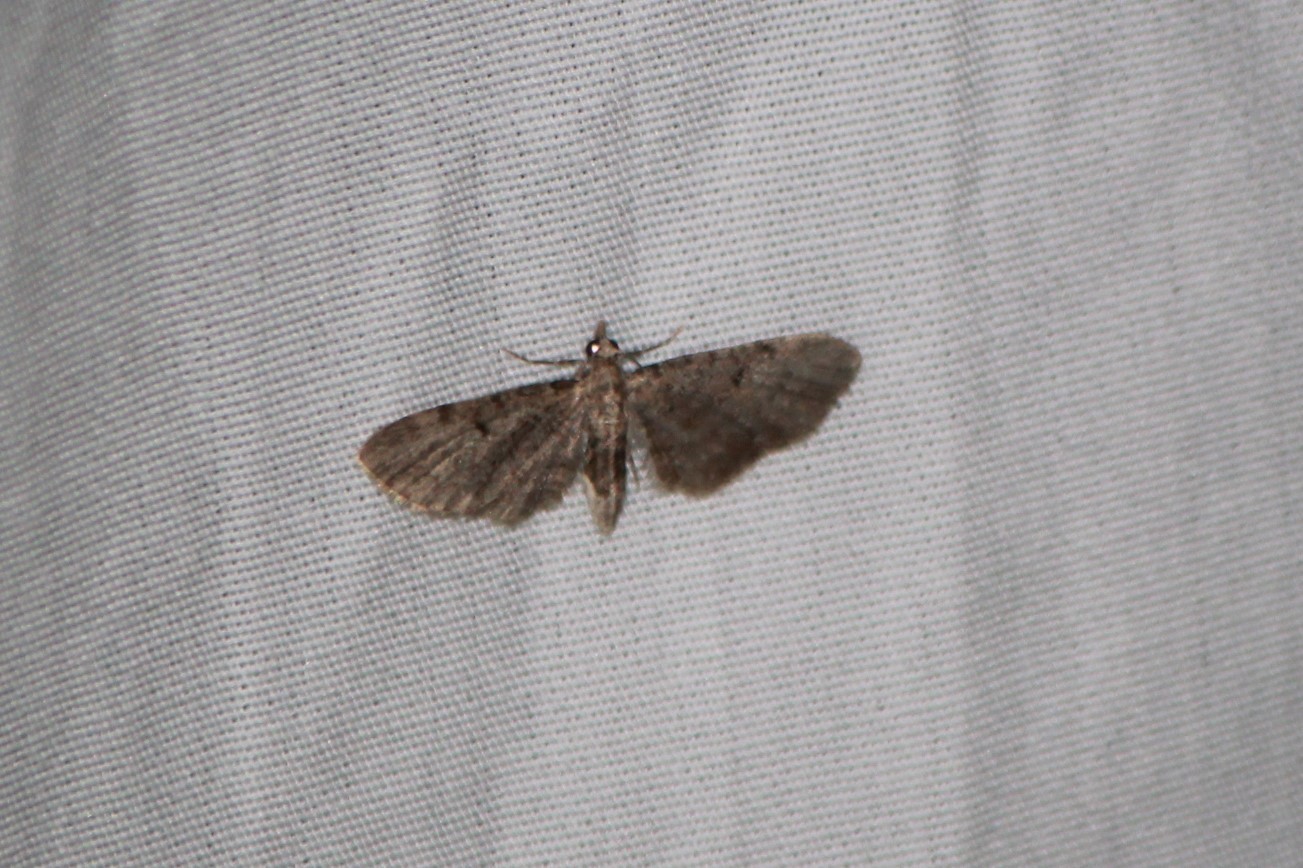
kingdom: Animalia
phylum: Arthropoda
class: Insecta
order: Lepidoptera
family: Geometridae
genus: Eupithecia
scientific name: Eupithecia miserulata
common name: Common eupithecia
